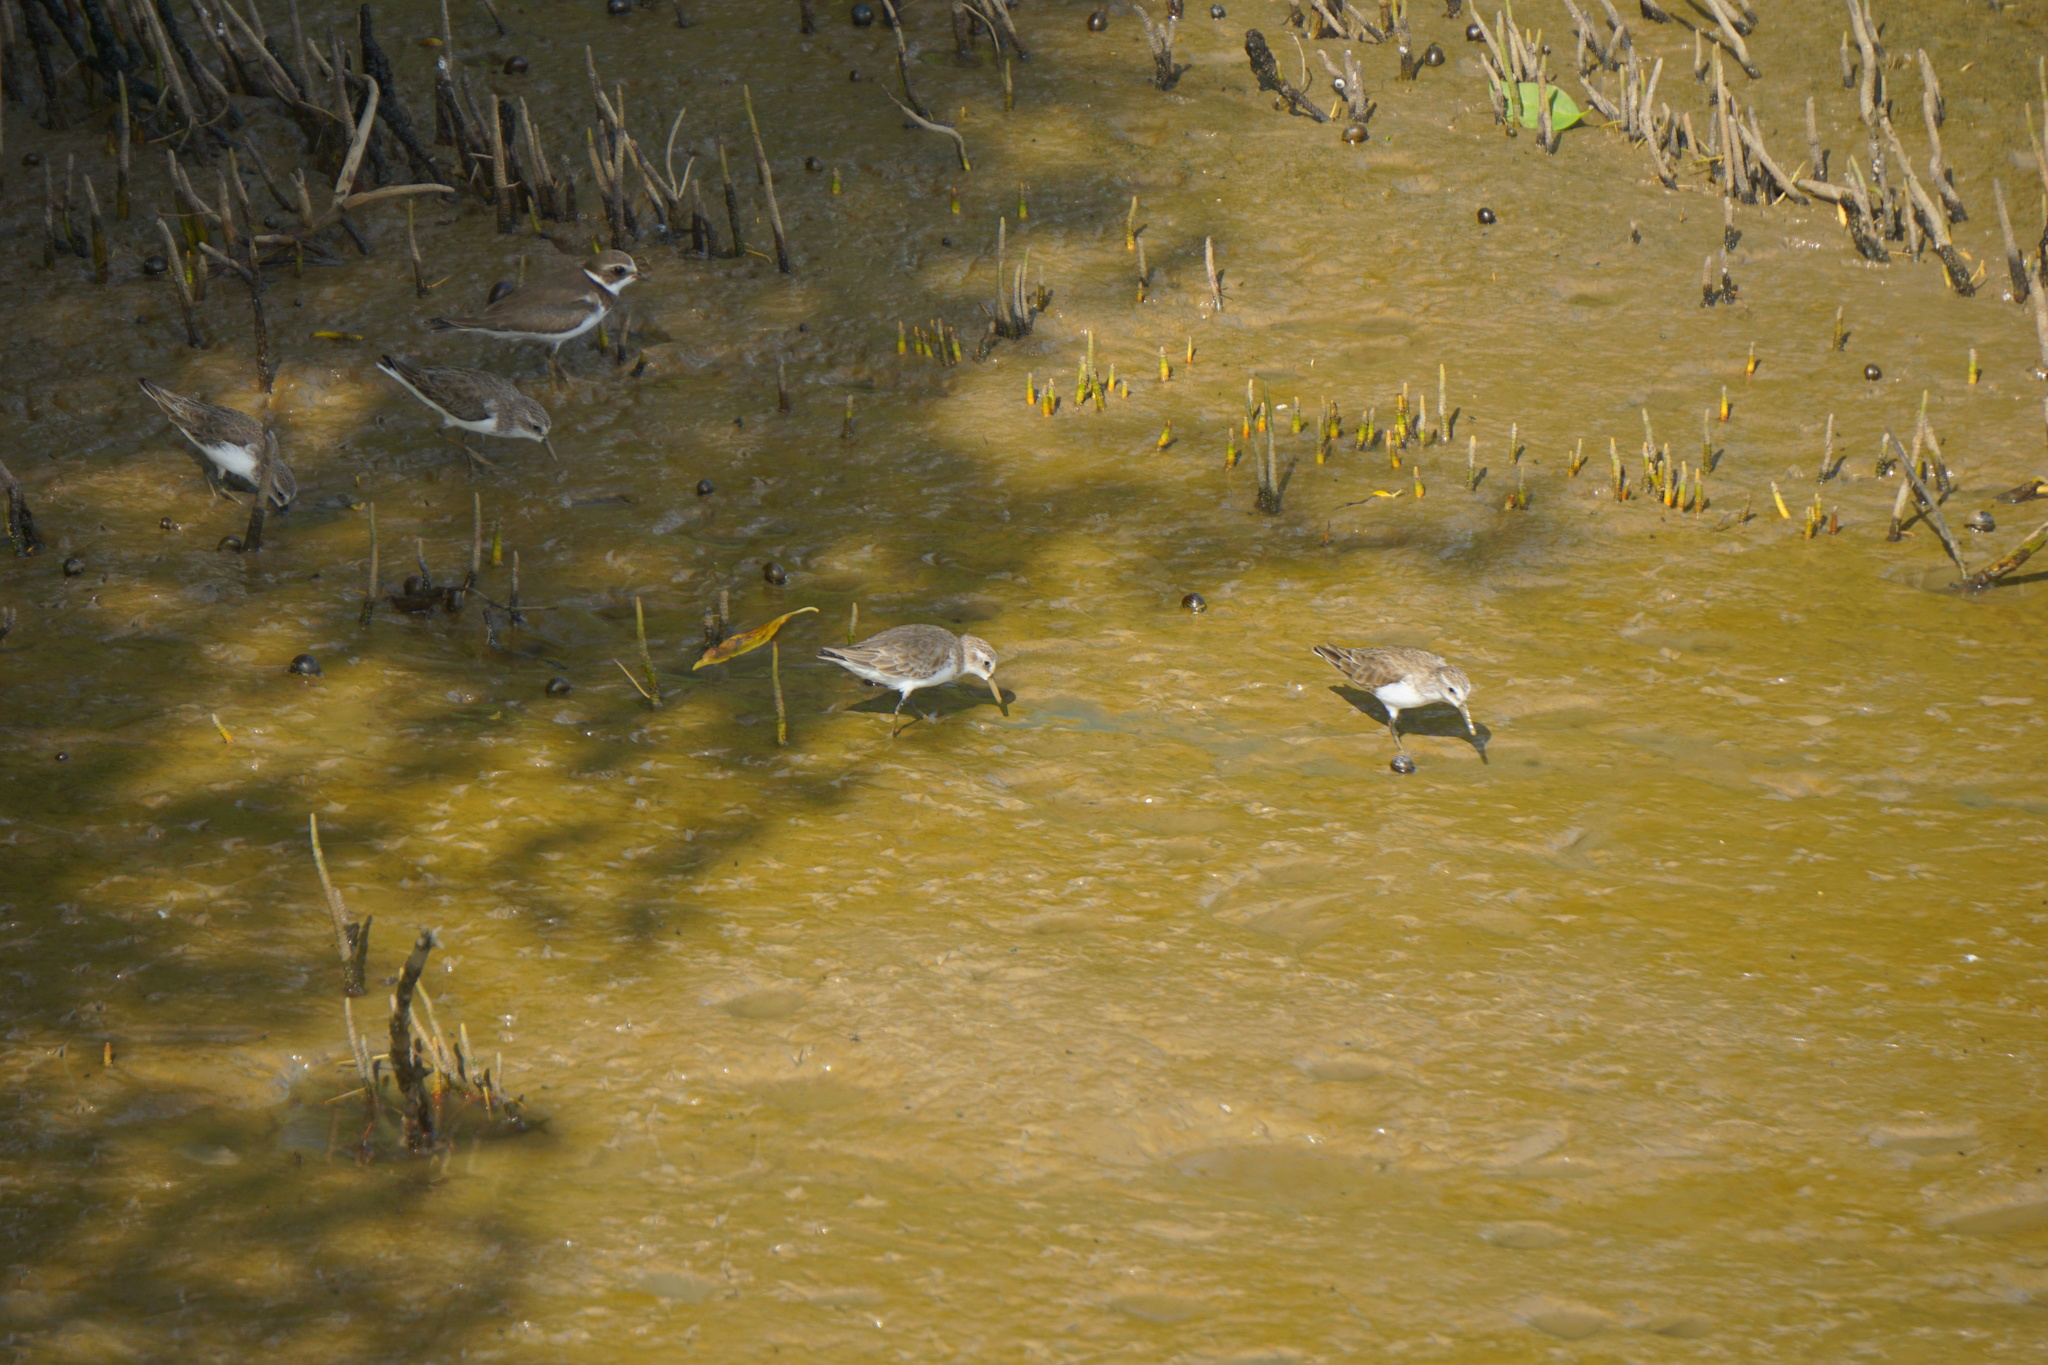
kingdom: Animalia
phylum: Chordata
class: Aves
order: Charadriiformes
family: Scolopacidae
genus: Calidris
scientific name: Calidris mauri
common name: Western sandpiper
